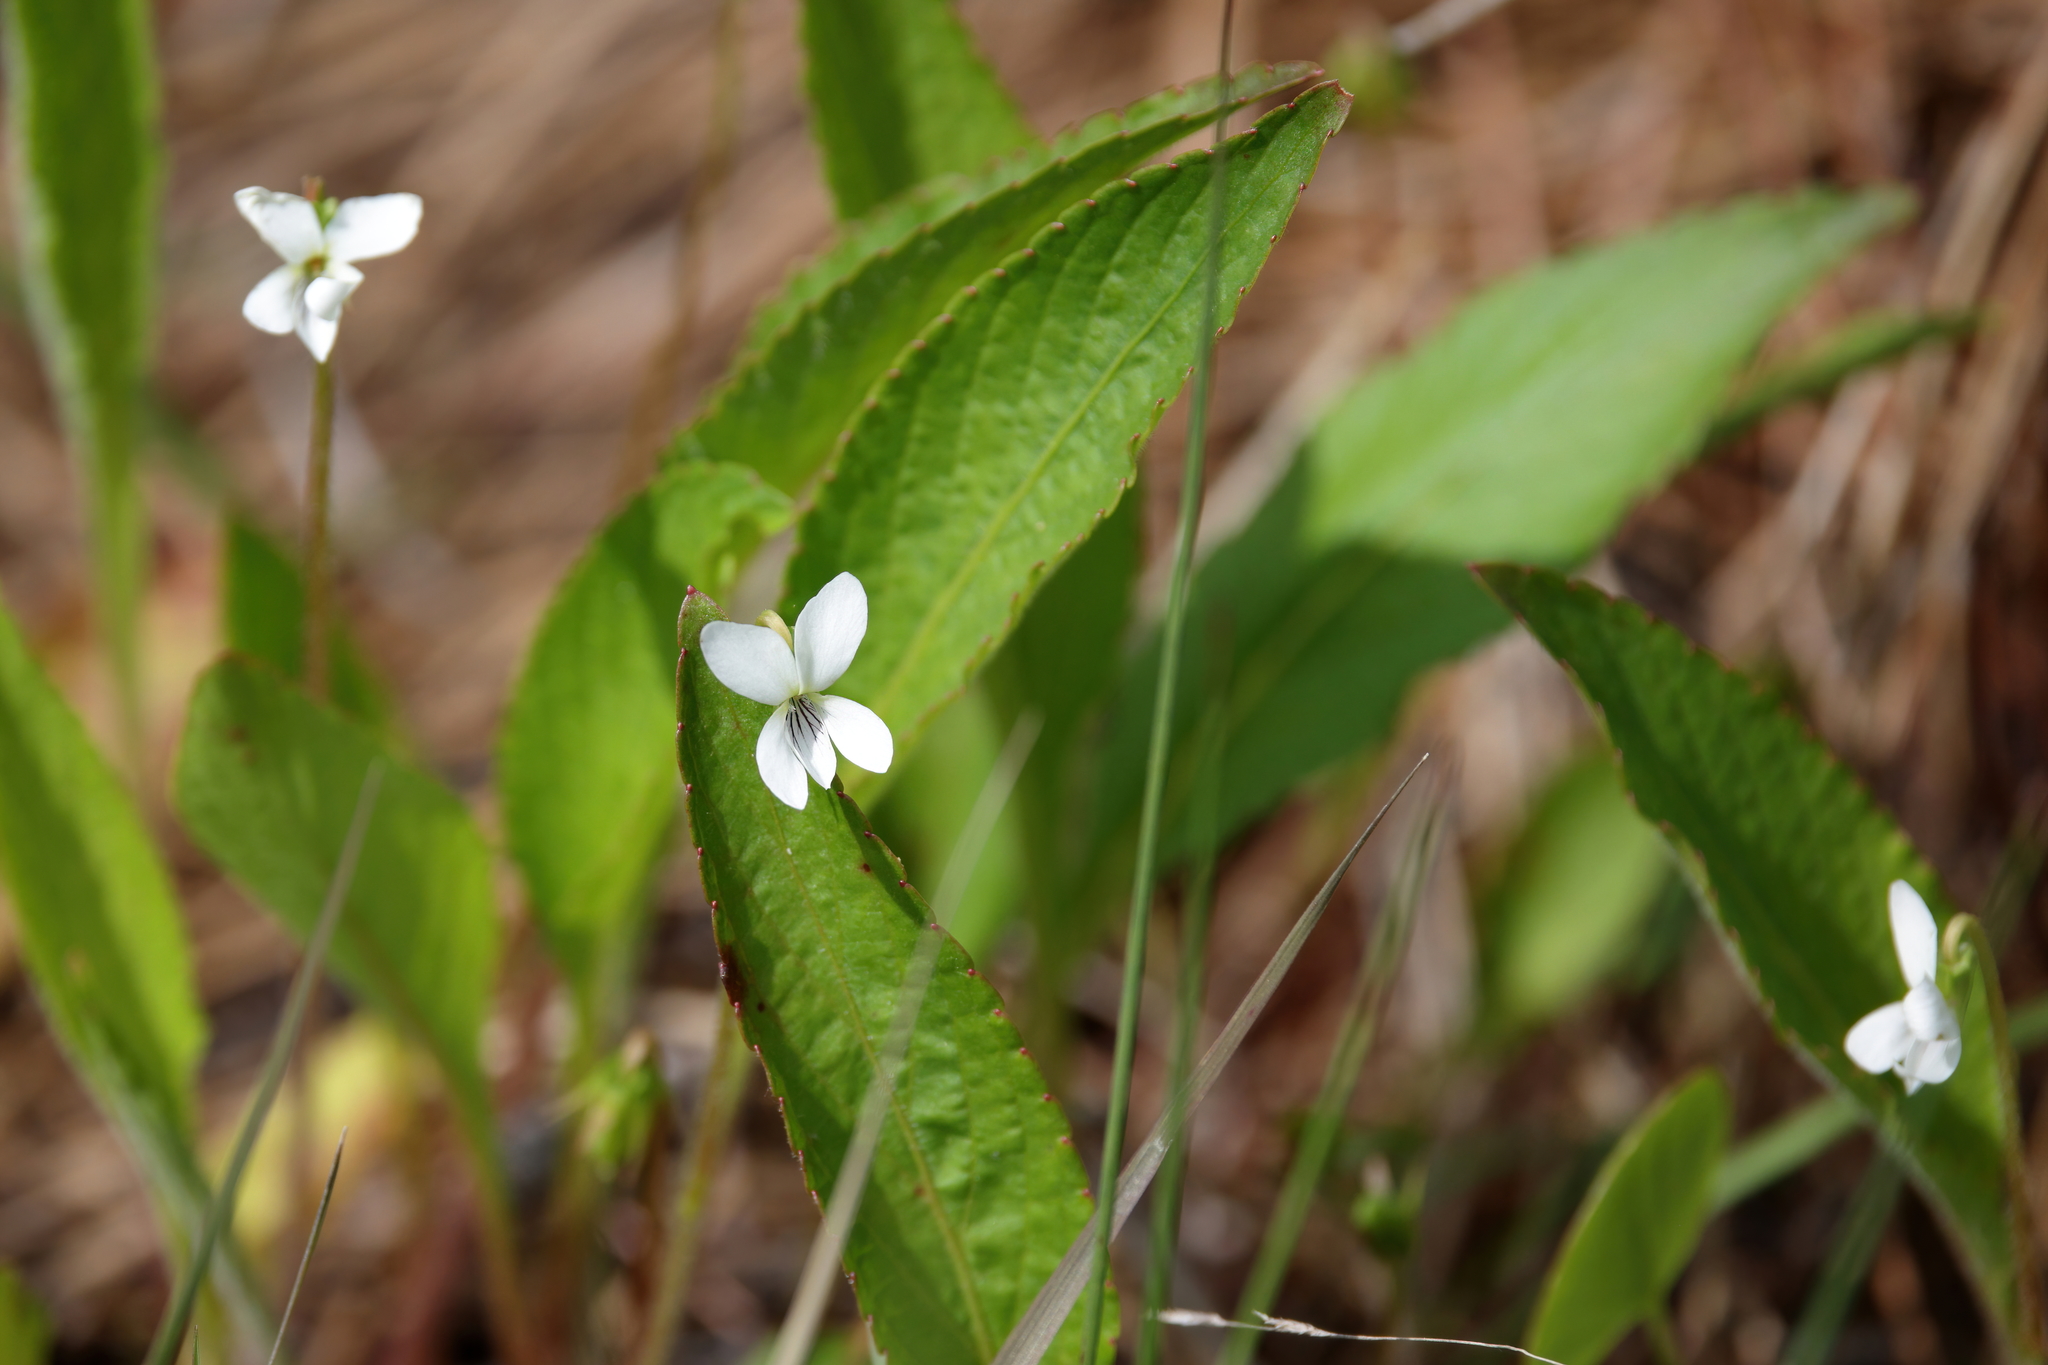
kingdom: Plantae
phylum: Tracheophyta
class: Magnoliopsida
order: Malpighiales
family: Violaceae
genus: Viola
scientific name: Viola lanceolata
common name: Bog white violet
